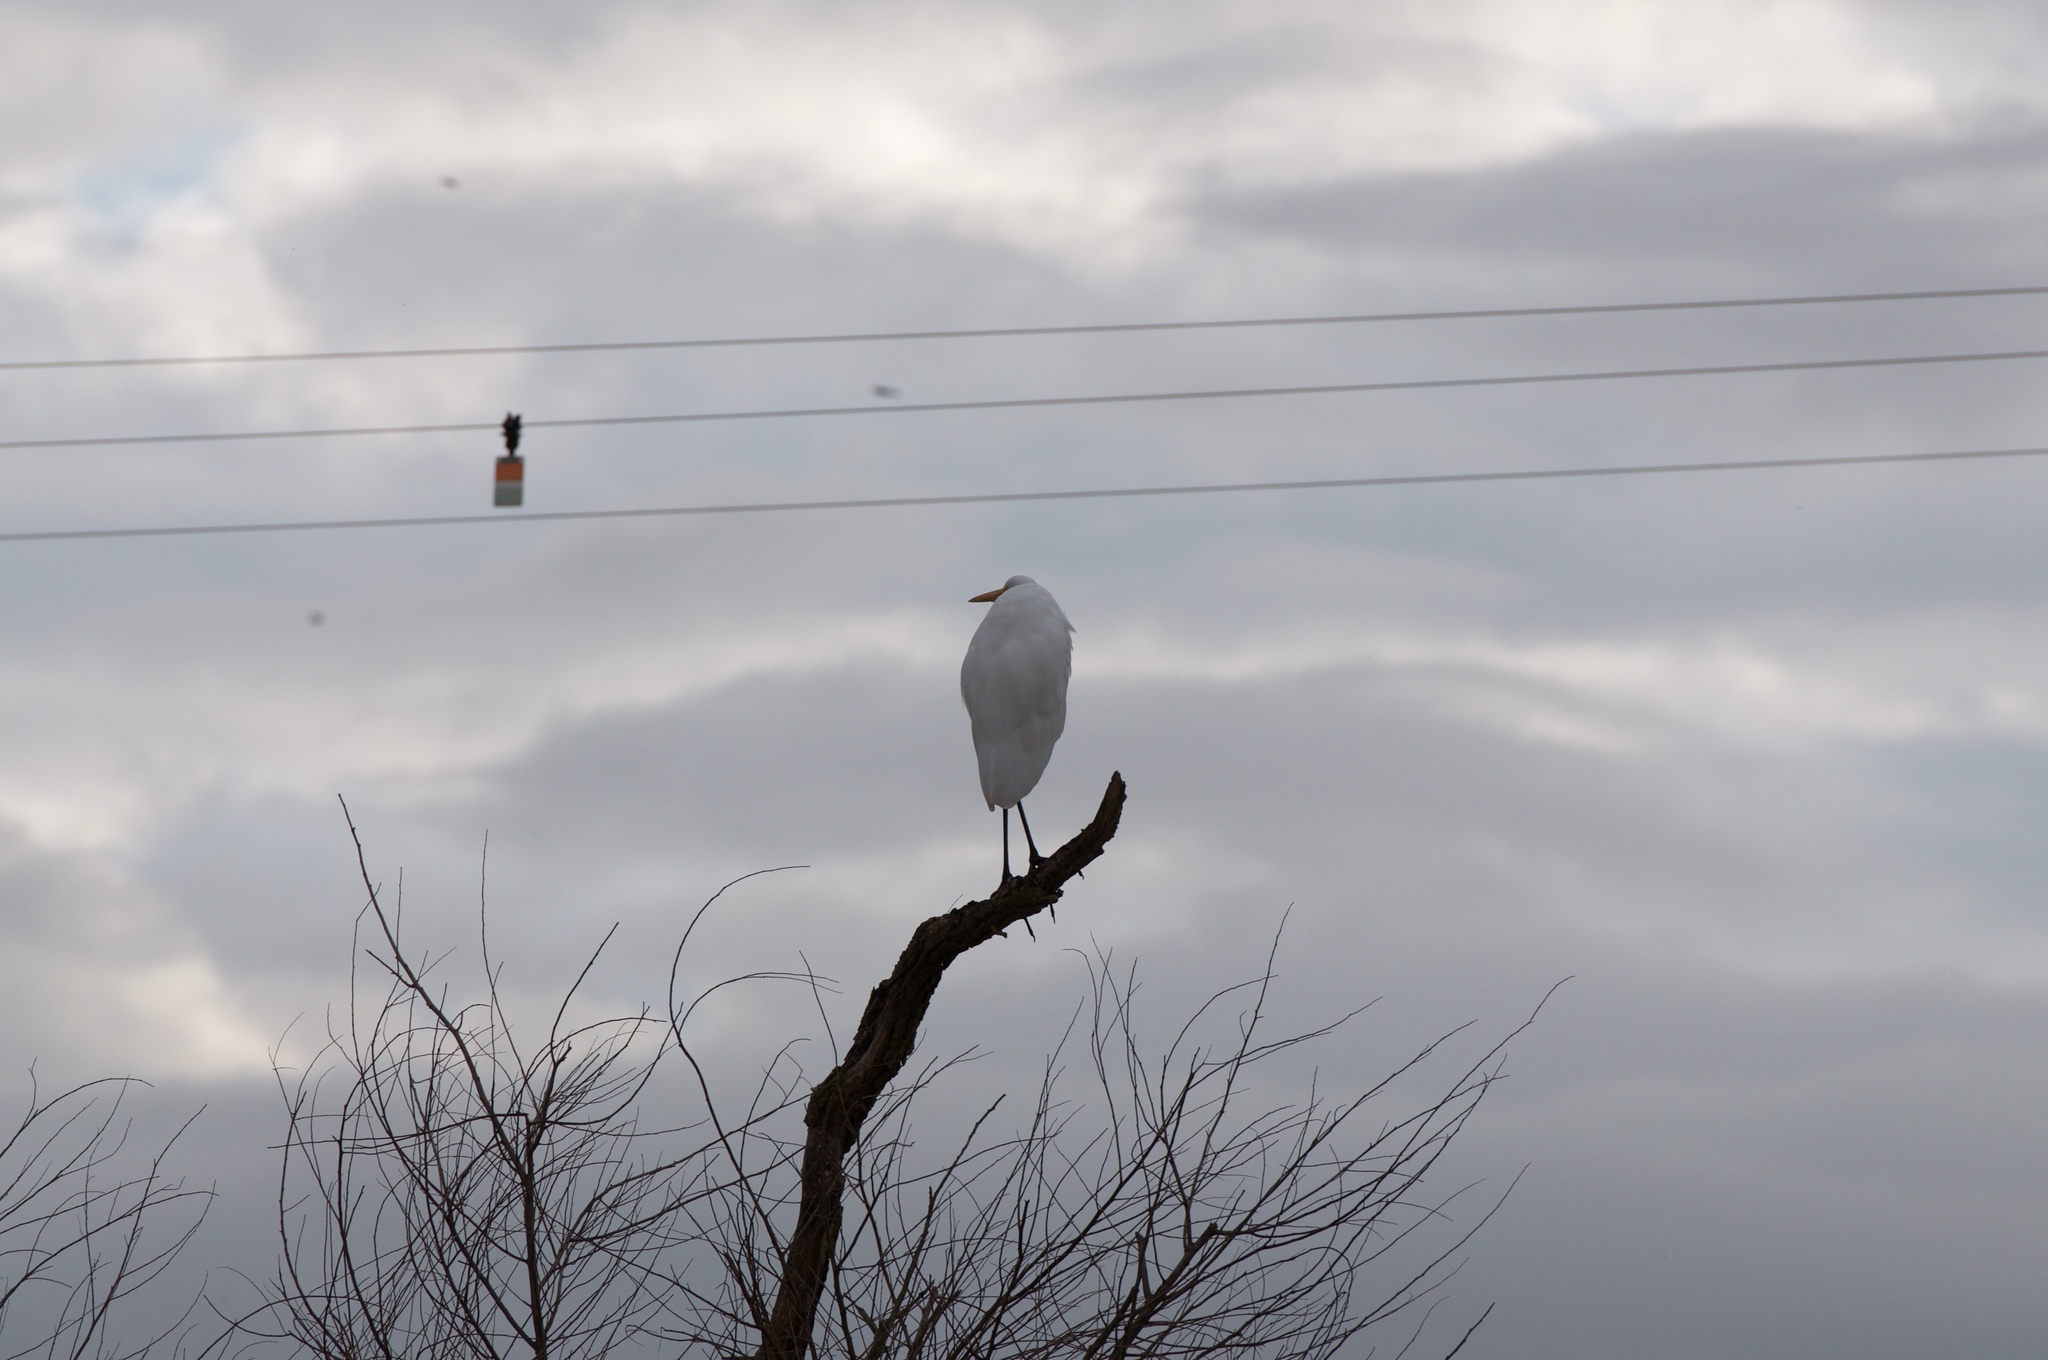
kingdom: Animalia
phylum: Chordata
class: Aves
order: Pelecaniformes
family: Ardeidae
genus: Ardea
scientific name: Ardea alba
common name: Great egret
